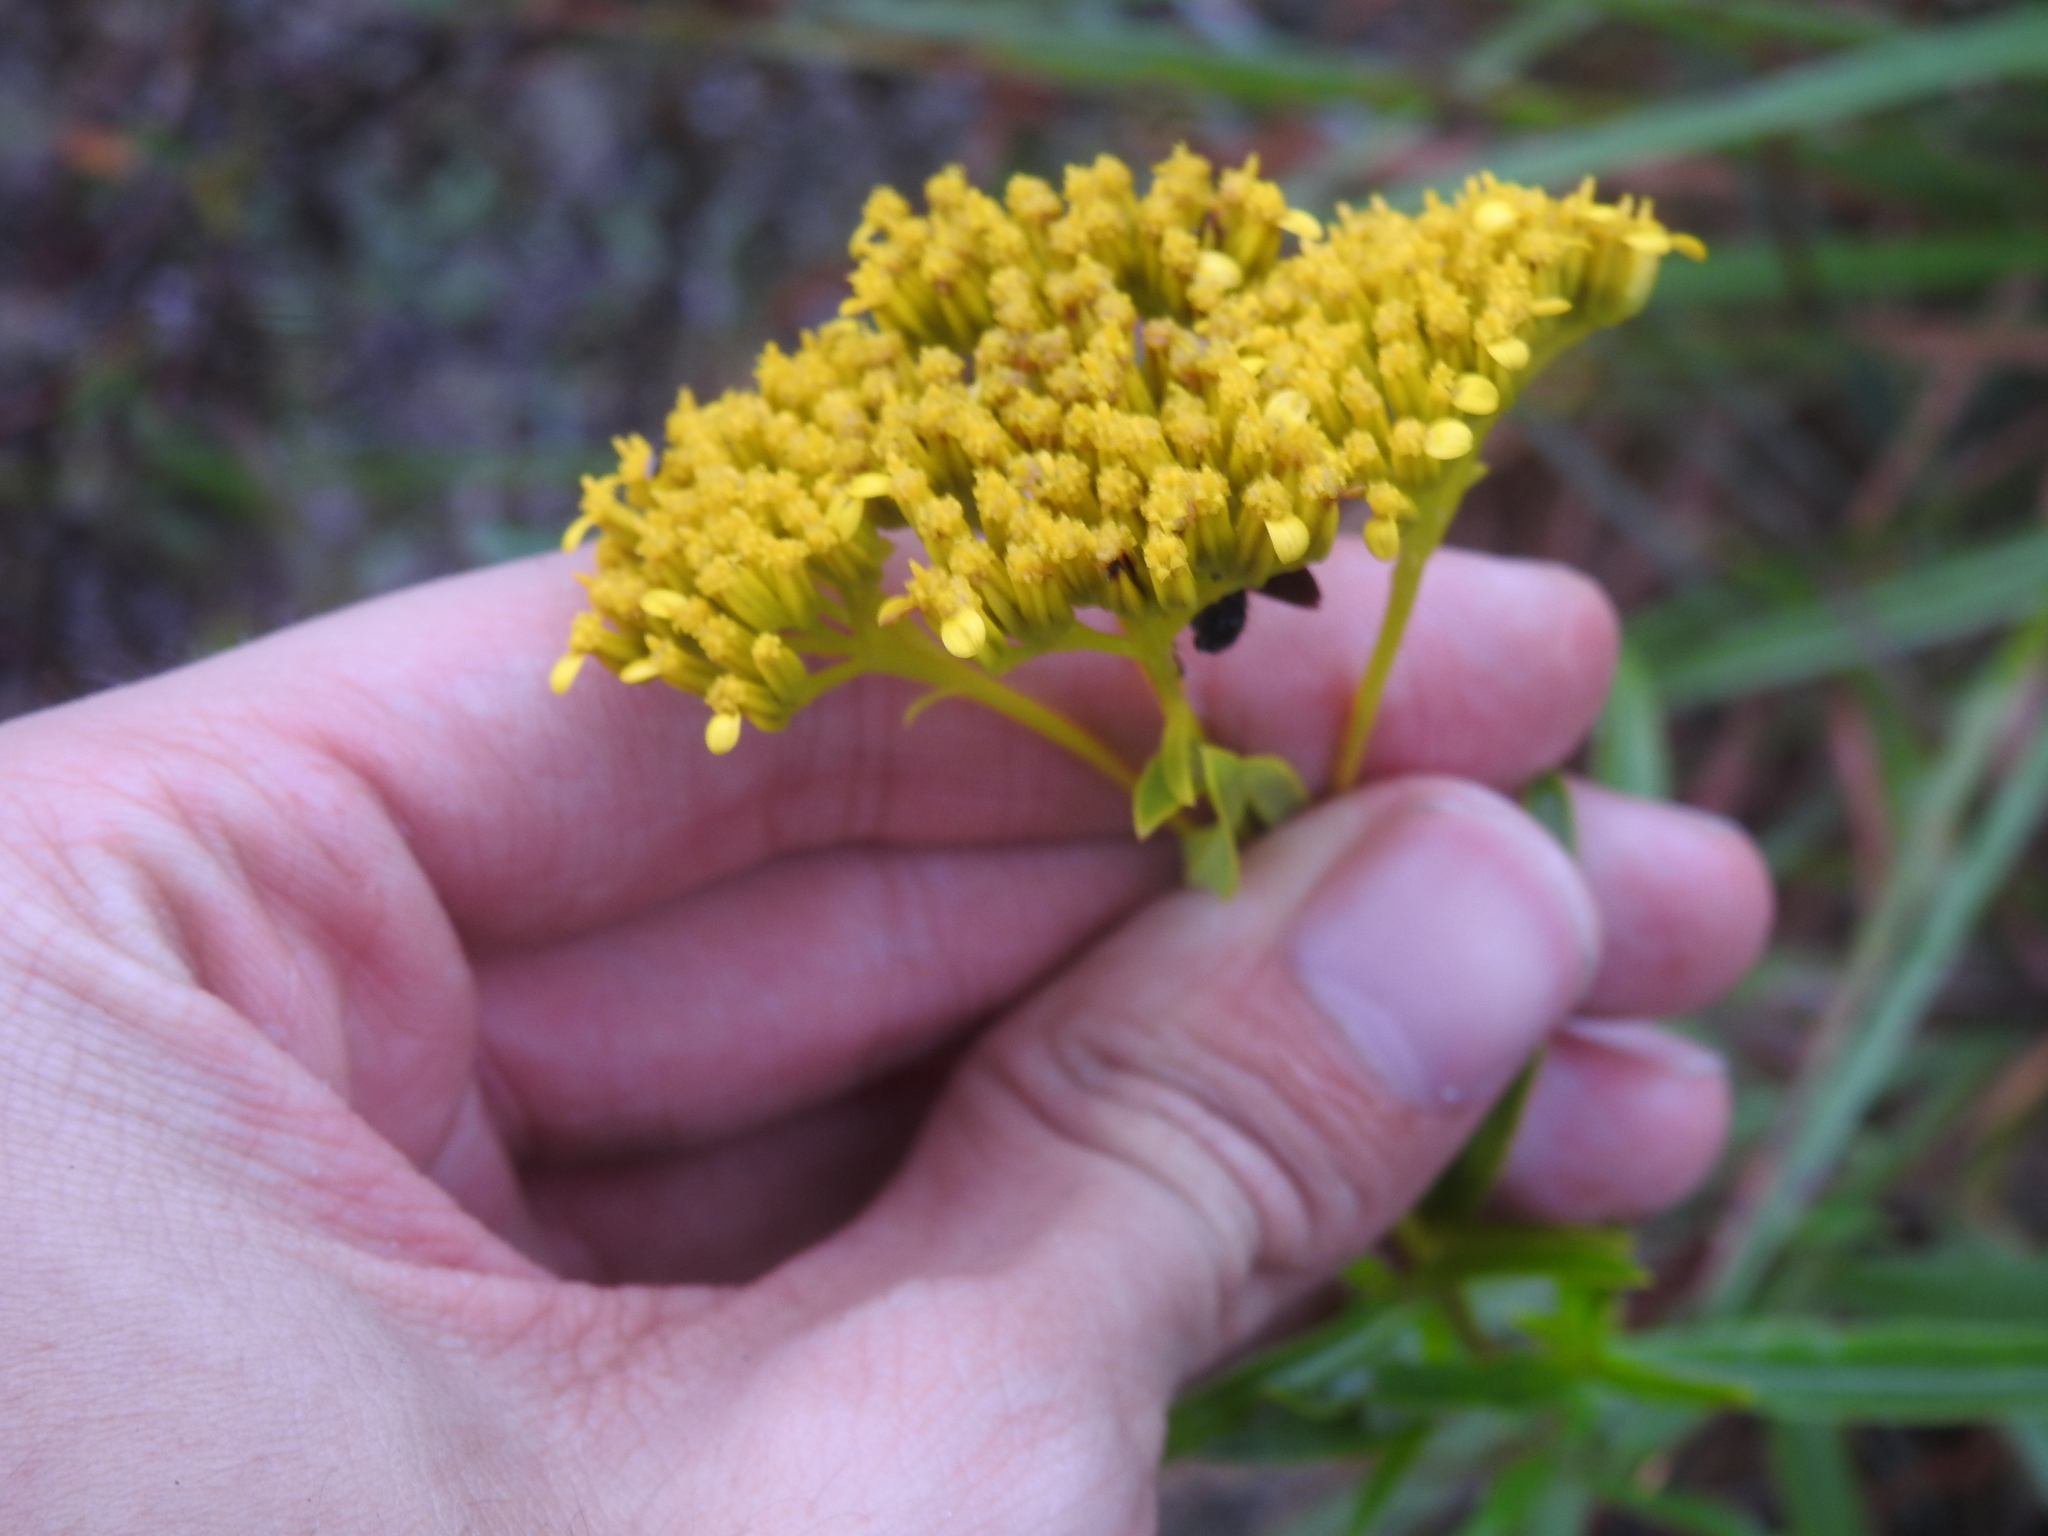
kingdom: Plantae
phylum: Tracheophyta
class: Magnoliopsida
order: Asterales
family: Asteraceae
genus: Flaveria
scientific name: Flaveria linearis
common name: Yellowtop
